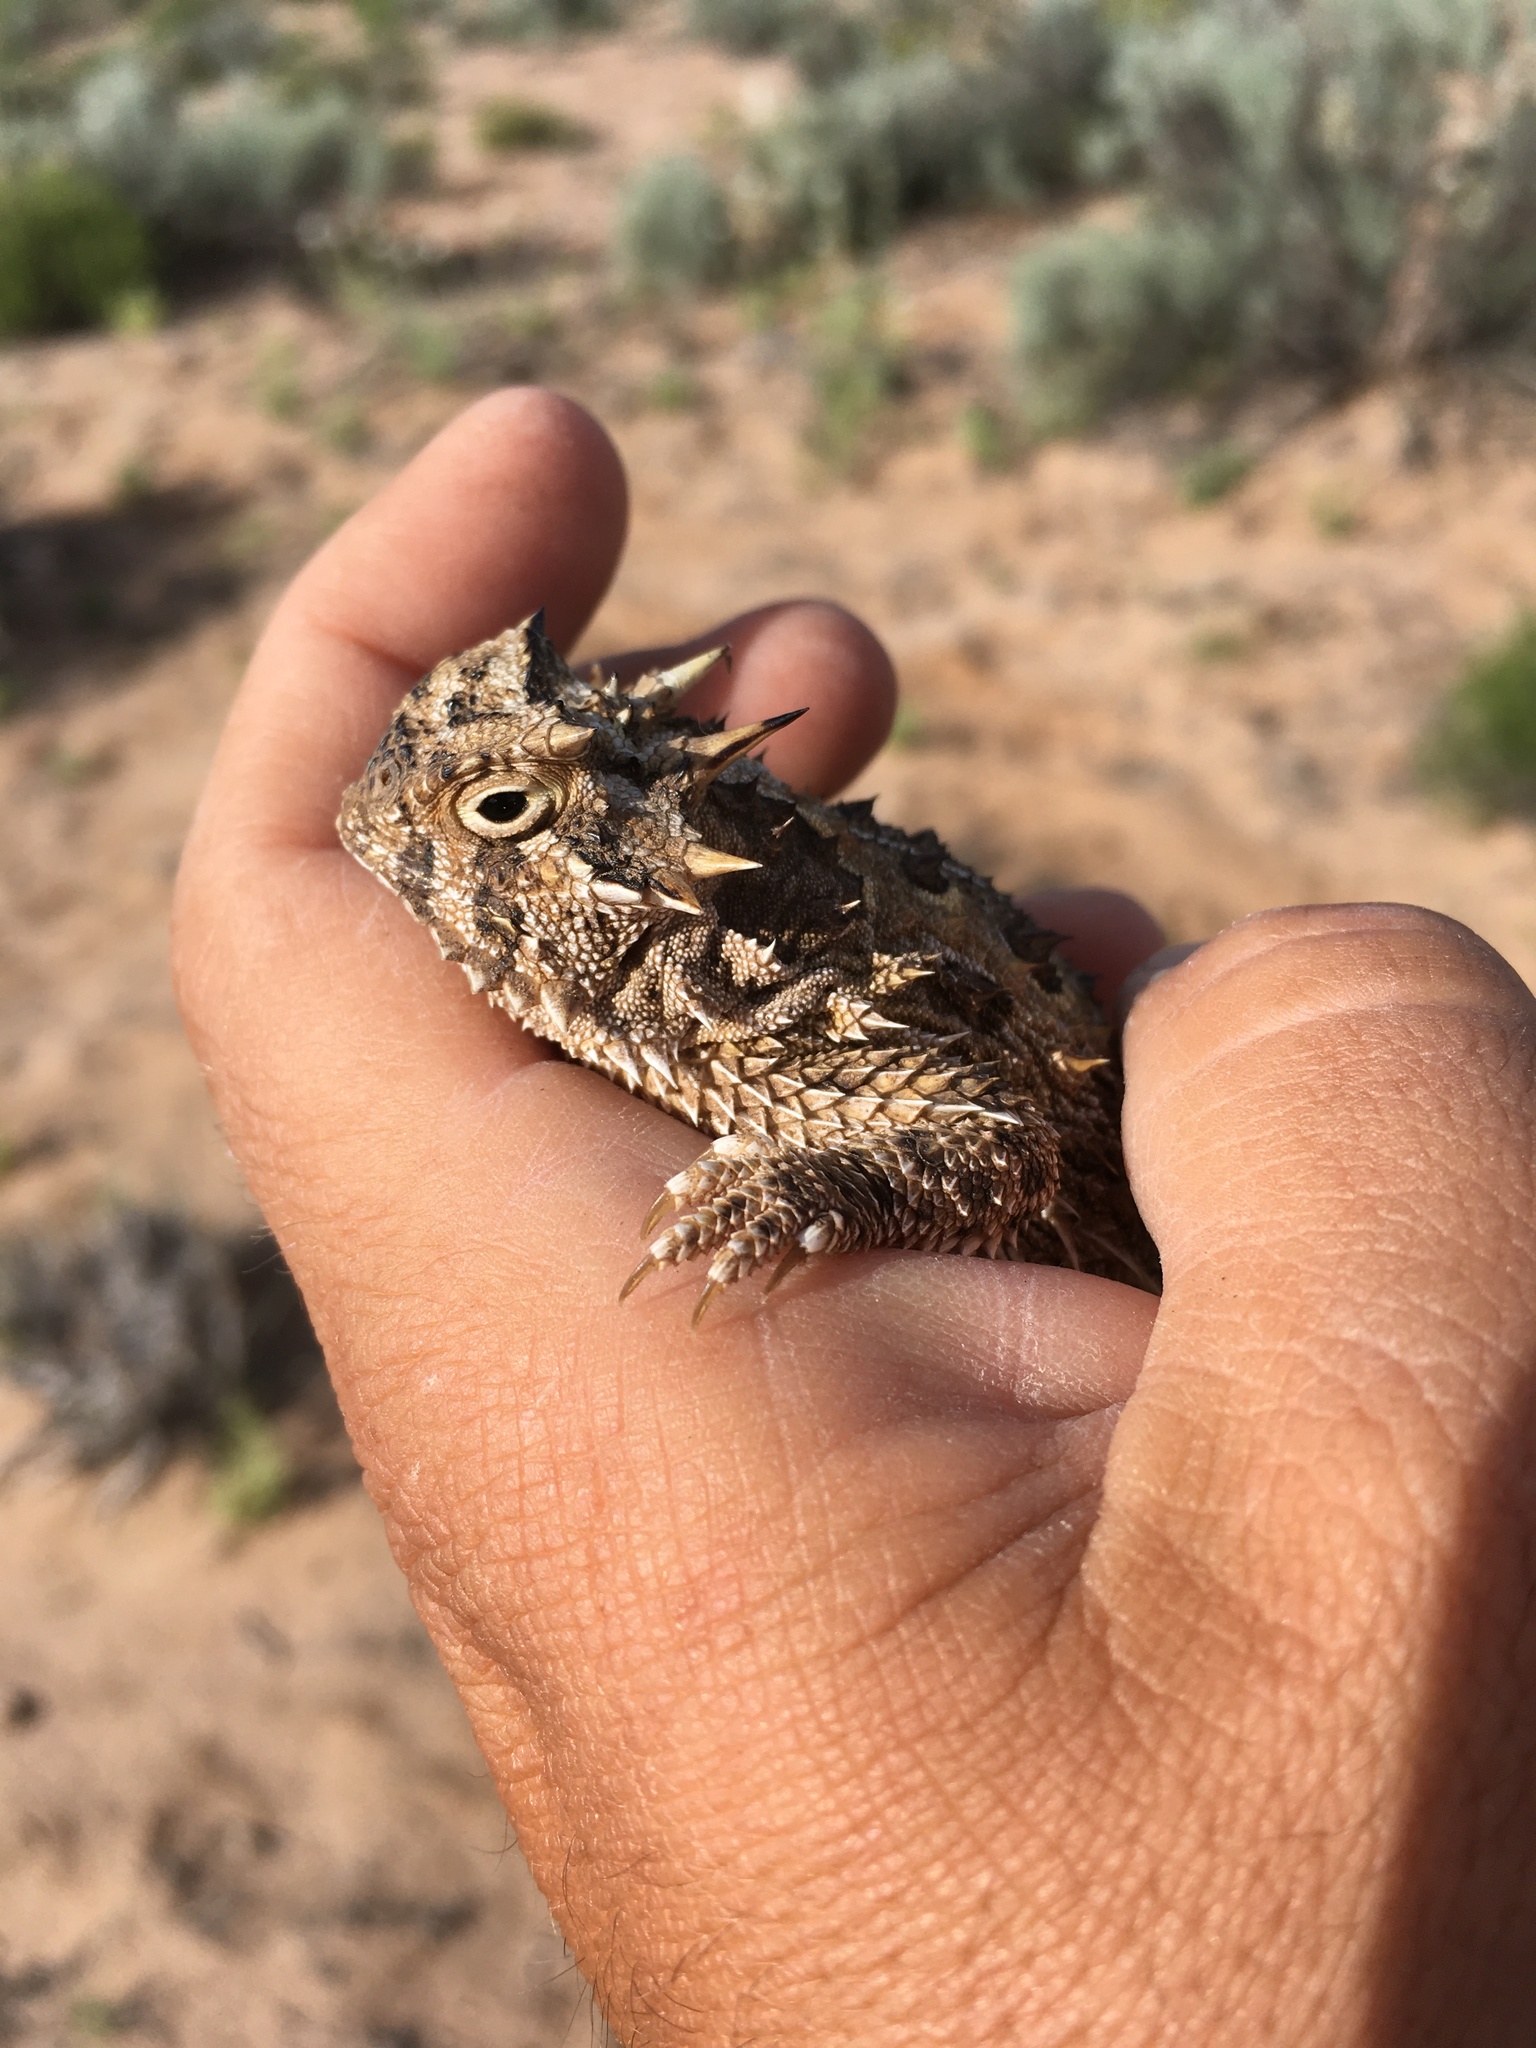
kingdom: Animalia
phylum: Chordata
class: Squamata
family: Phrynosomatidae
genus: Phrynosoma
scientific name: Phrynosoma cornutum
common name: Texas horned lizard
